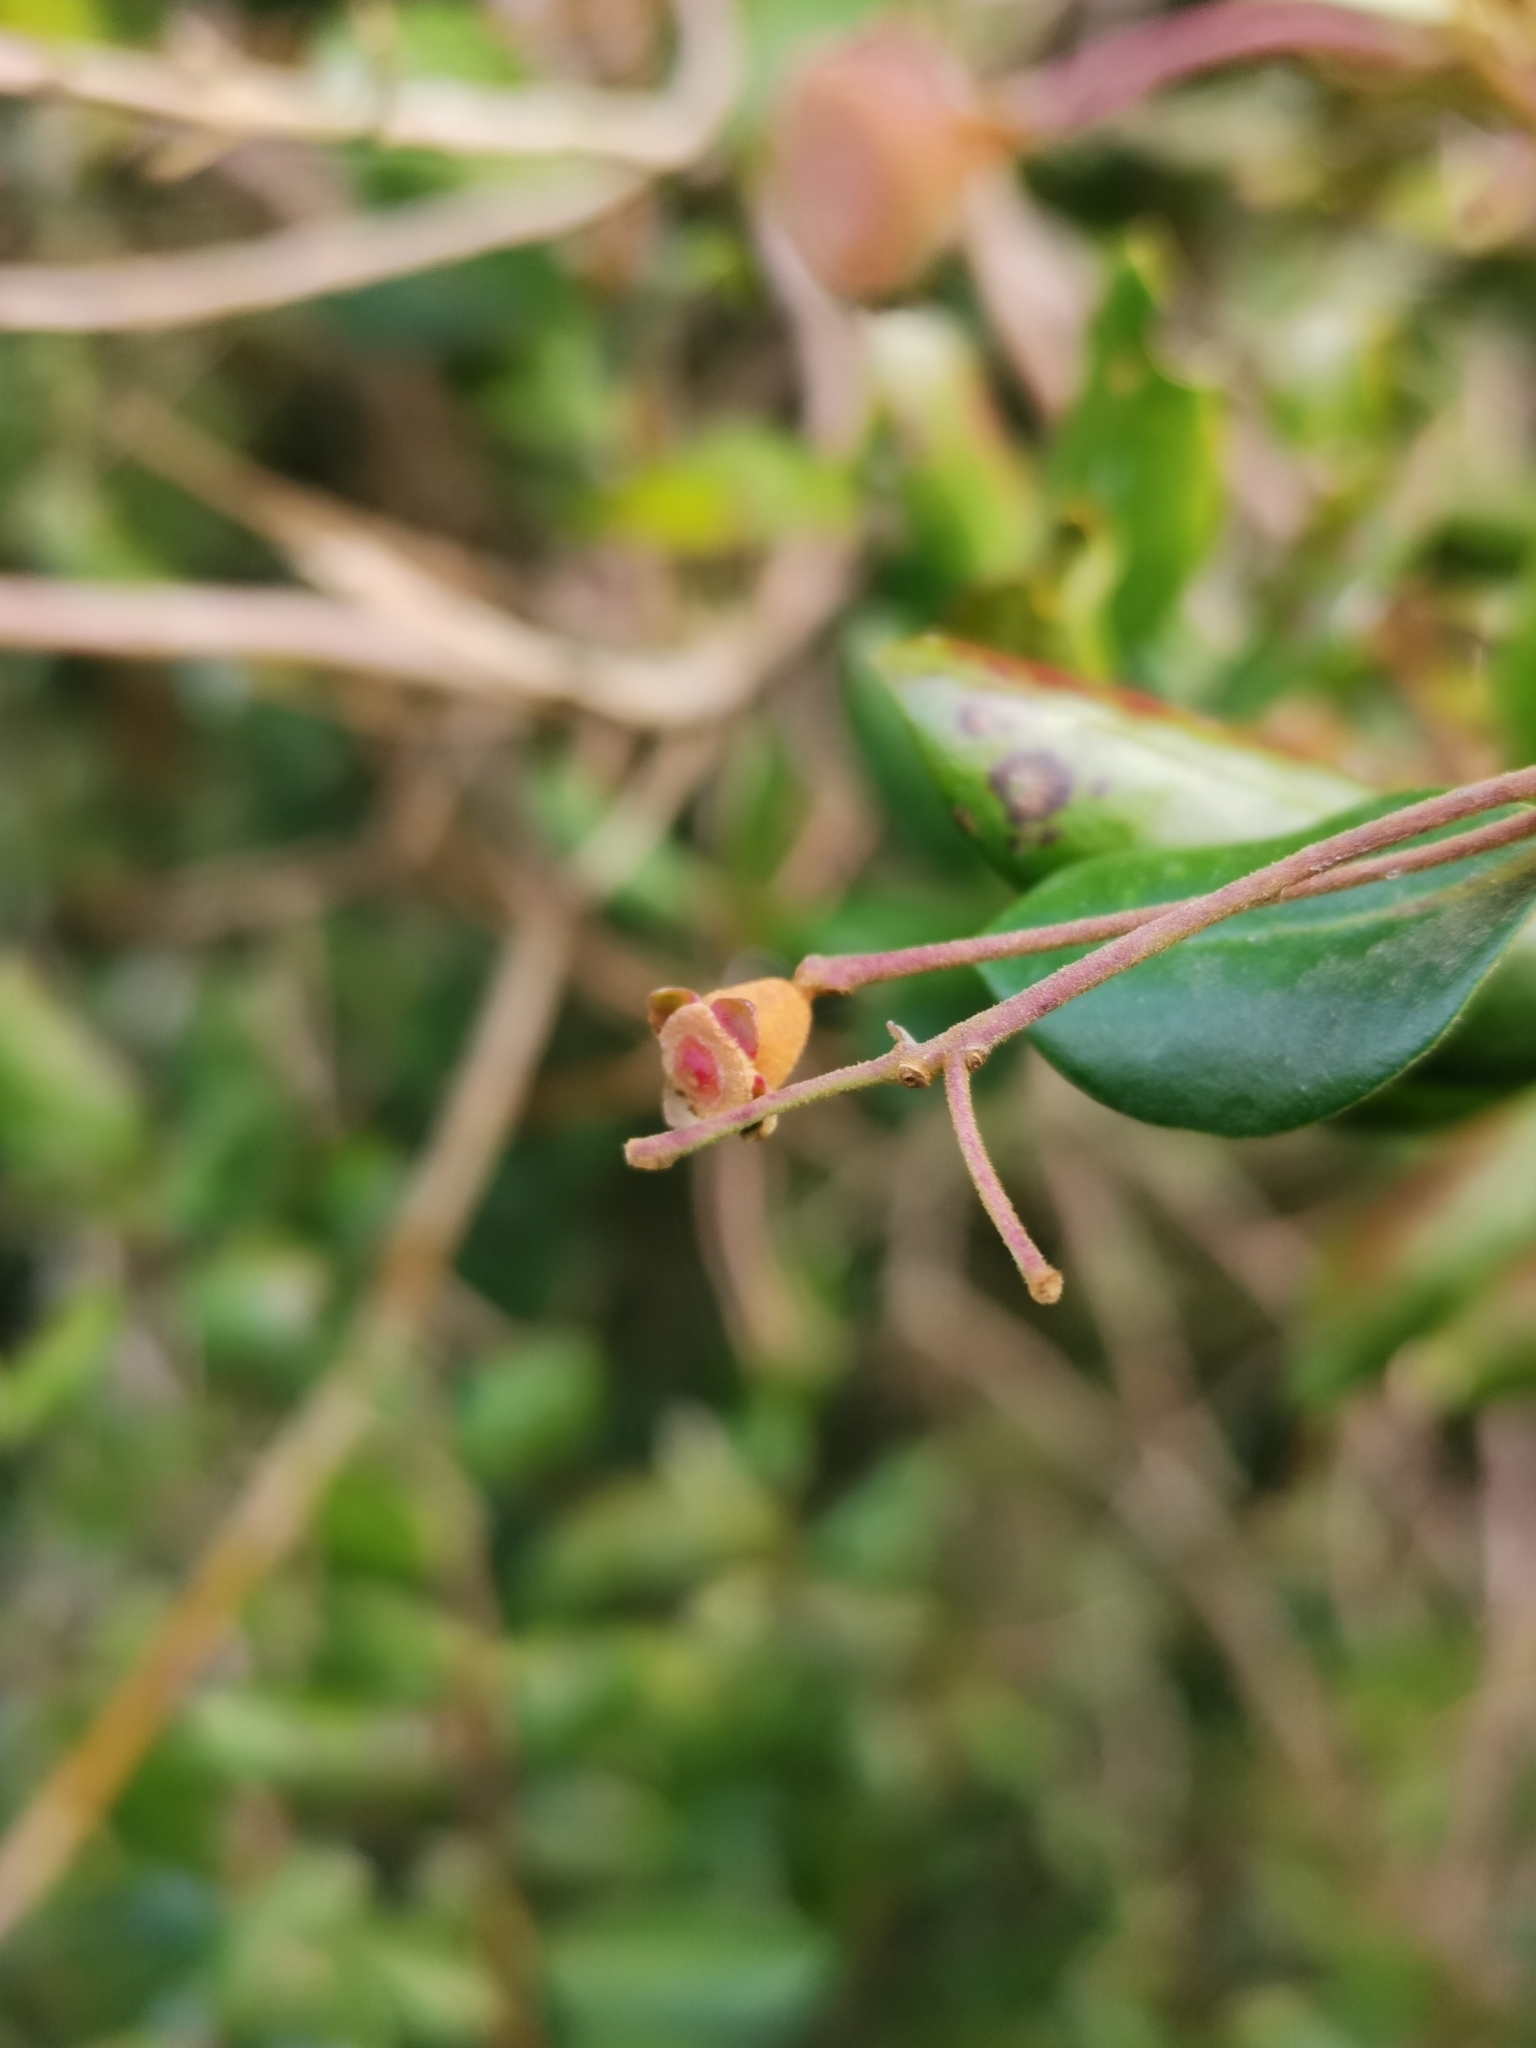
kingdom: Plantae
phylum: Tracheophyta
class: Magnoliopsida
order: Myrtales
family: Myrtaceae
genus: Myrceugenia
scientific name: Myrceugenia exsucca
